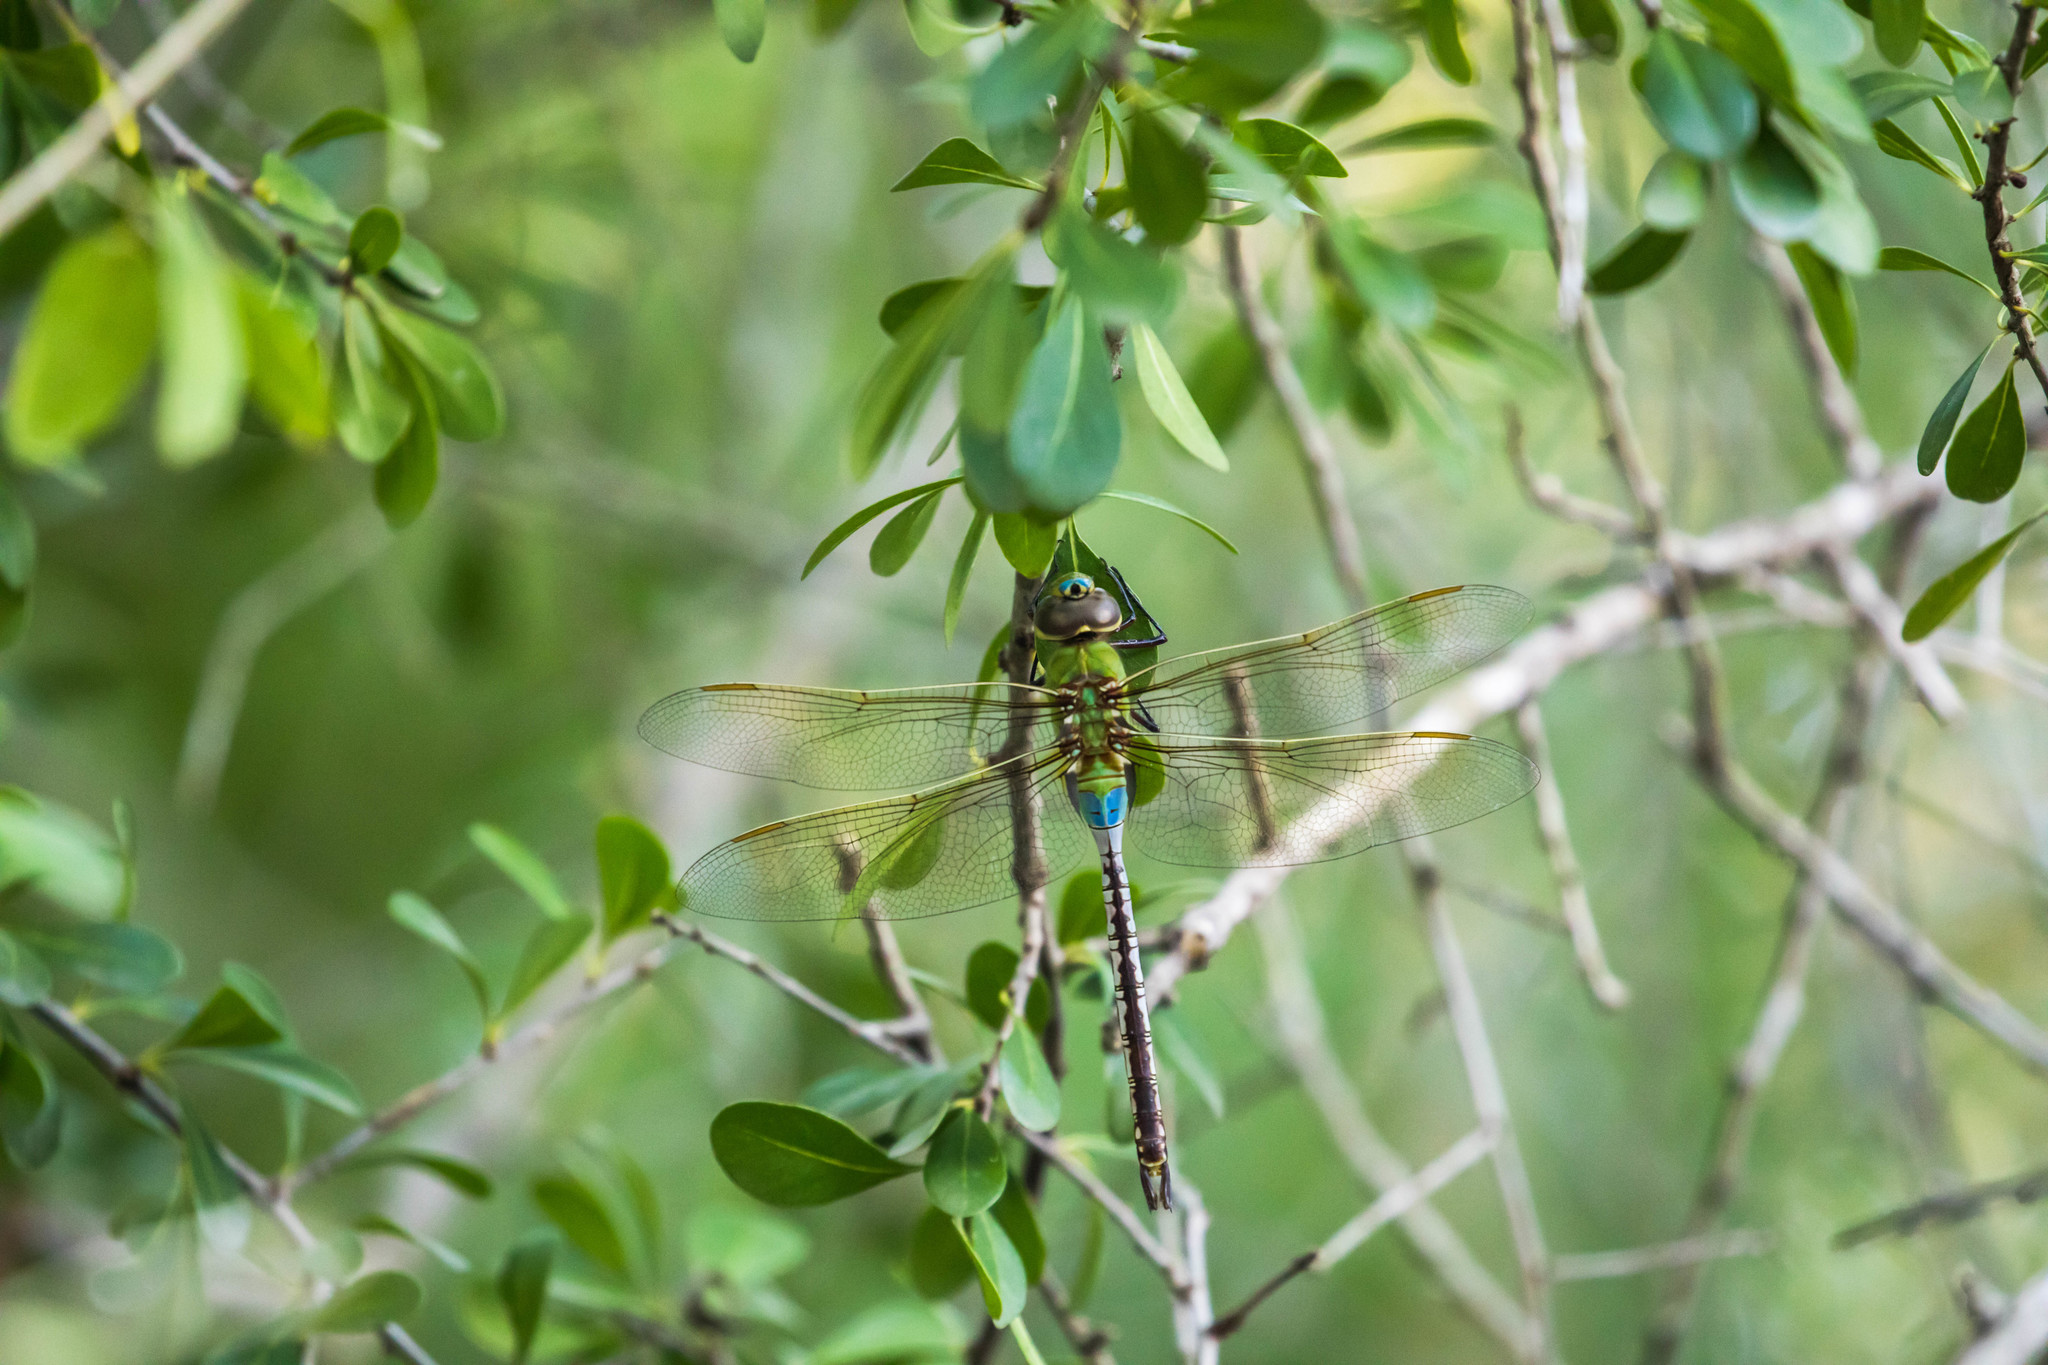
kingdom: Animalia
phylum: Arthropoda
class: Insecta
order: Odonata
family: Aeshnidae
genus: Anax
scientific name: Anax junius
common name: Common green darner
